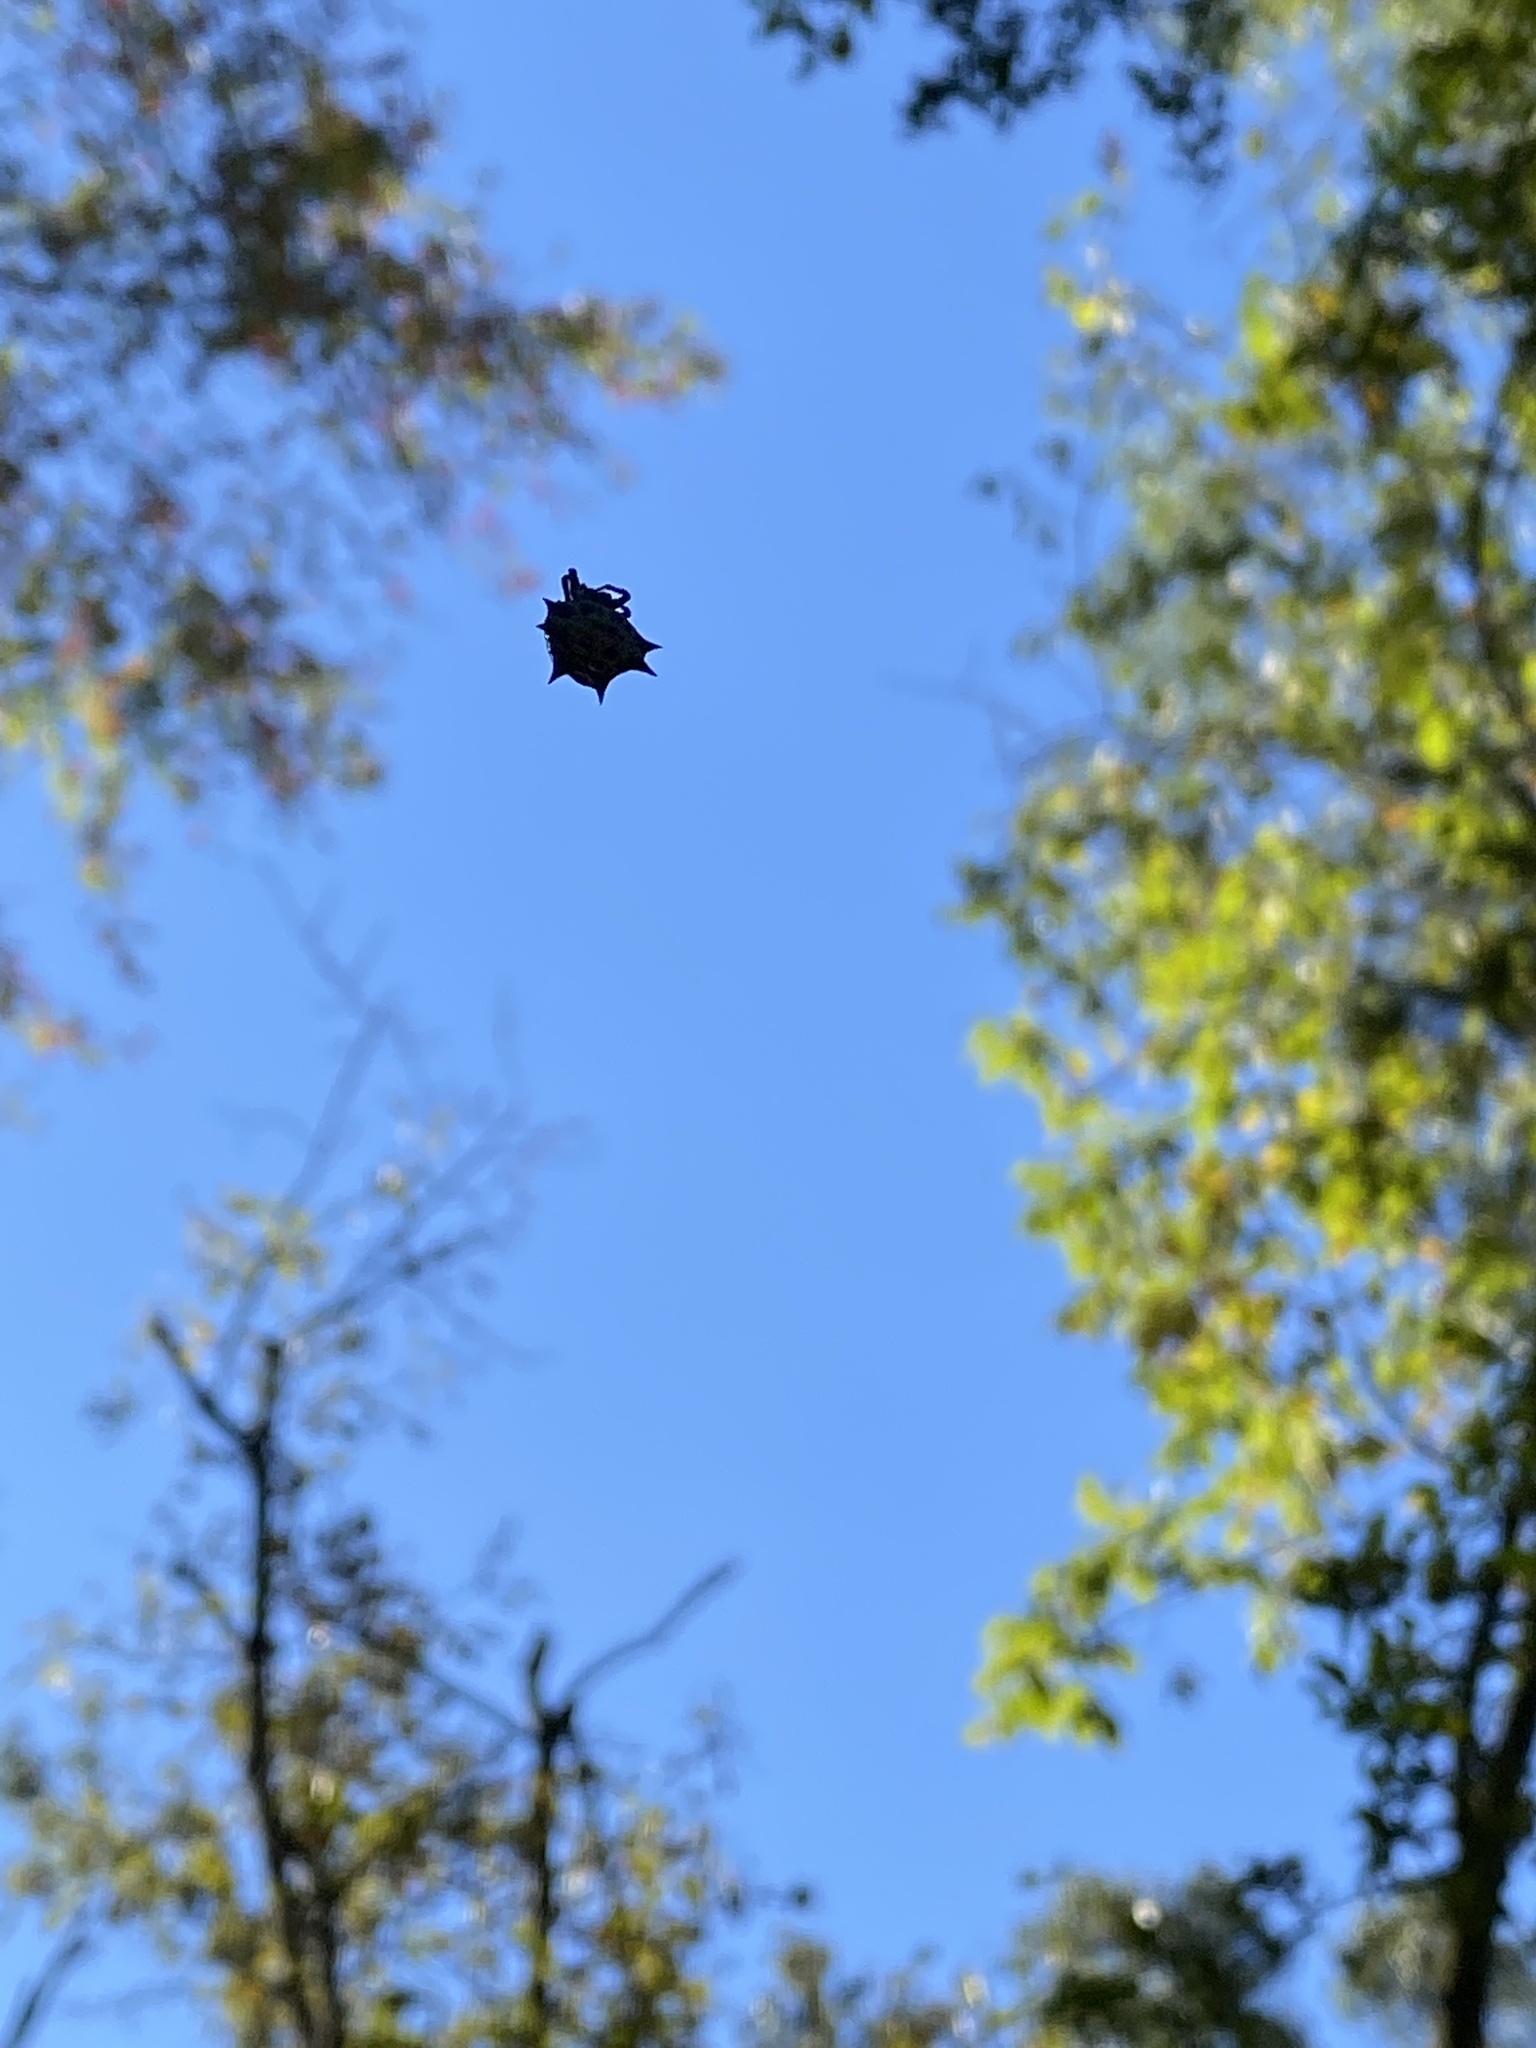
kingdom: Animalia
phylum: Arthropoda
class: Arachnida
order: Araneae
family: Araneidae
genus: Gasteracantha
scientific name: Gasteracantha cancriformis
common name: Orb weavers
